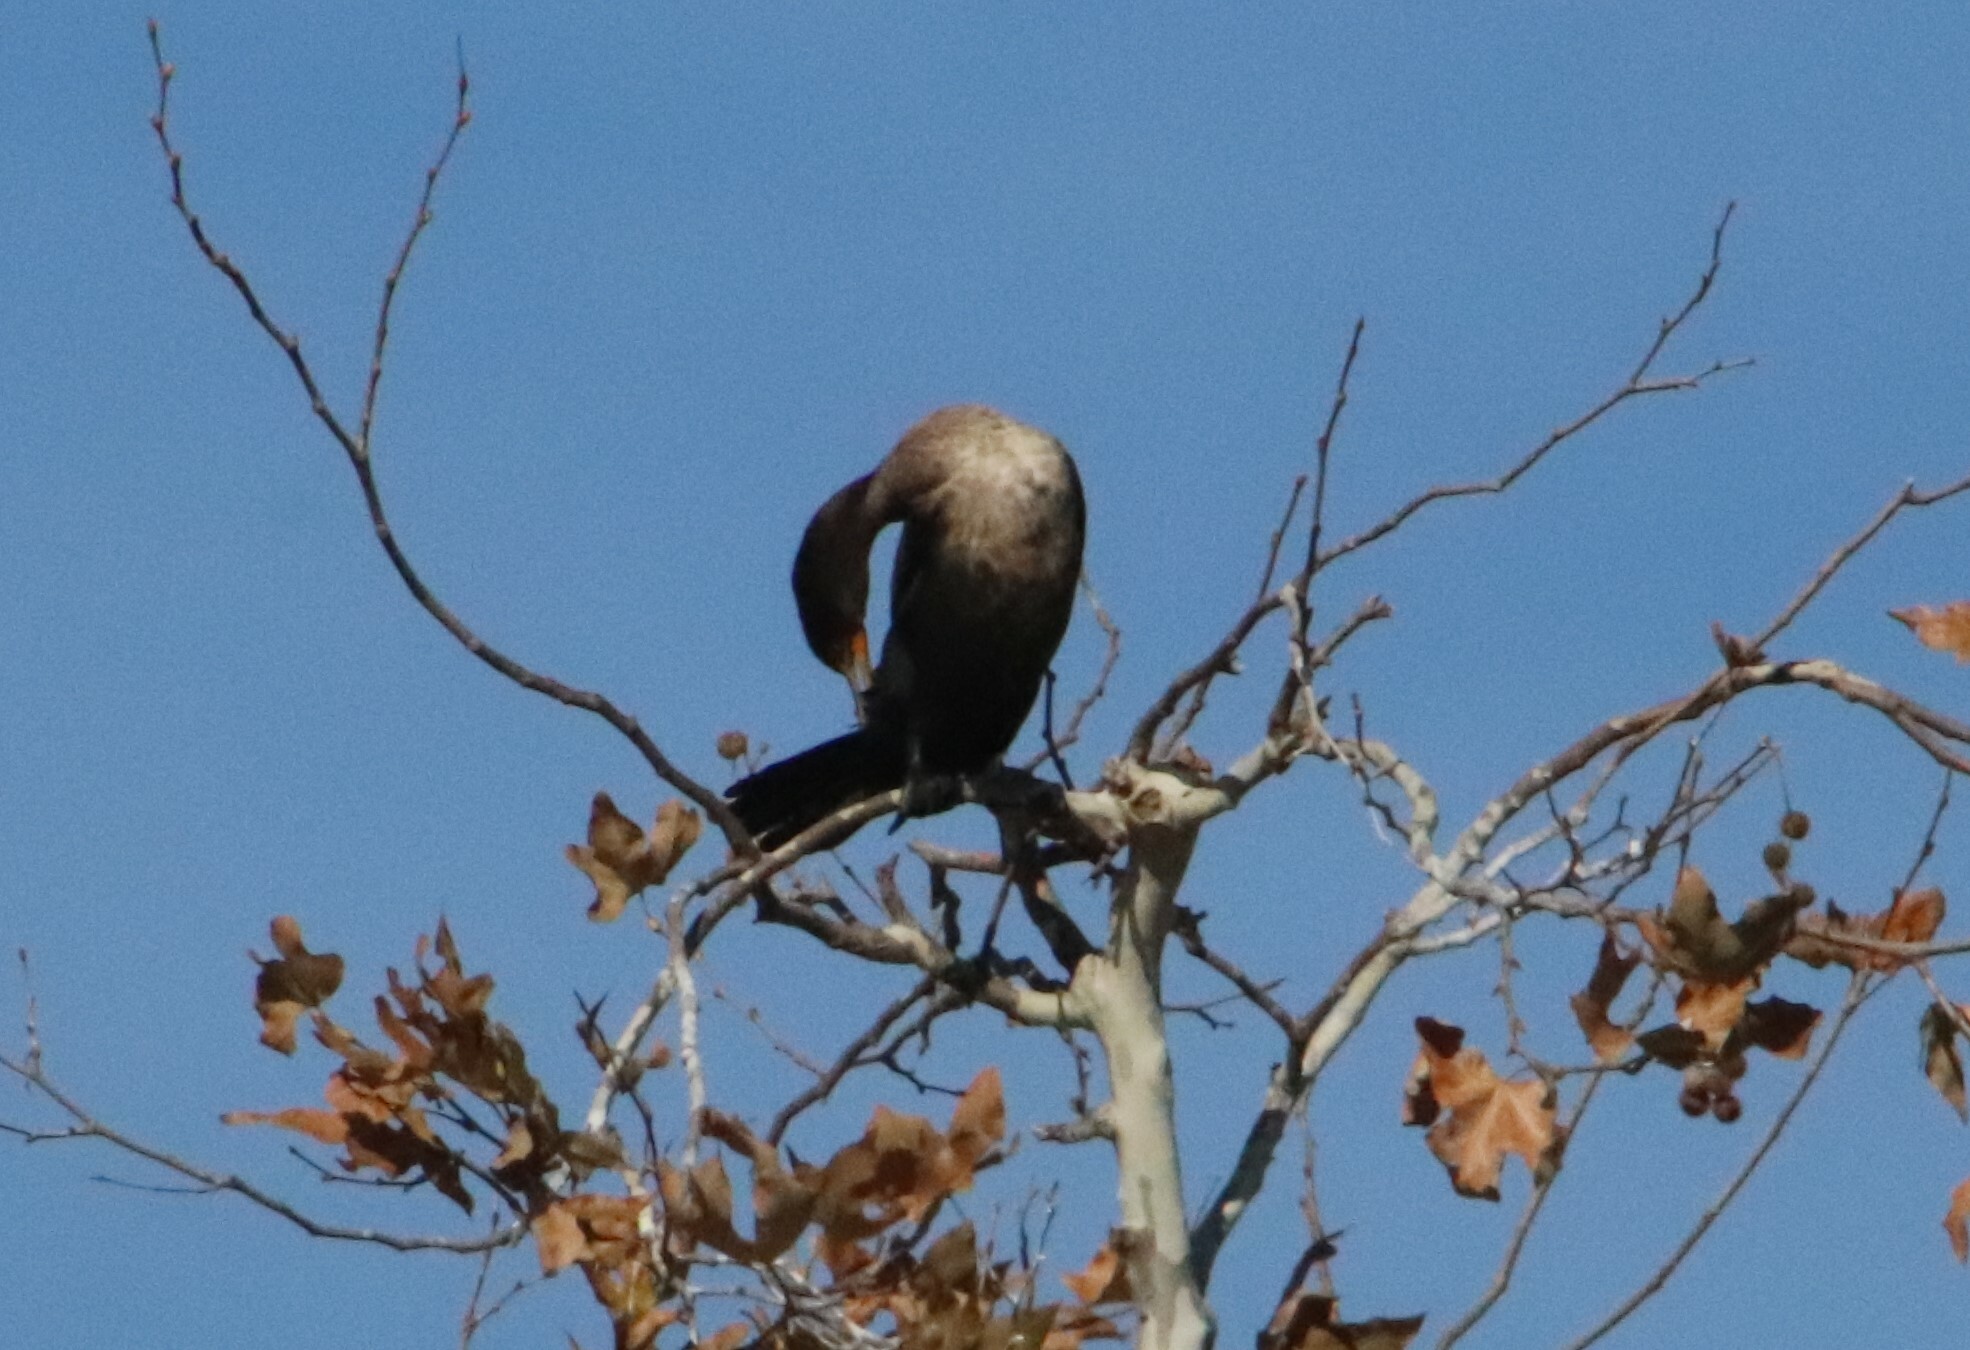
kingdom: Animalia
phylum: Chordata
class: Aves
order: Suliformes
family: Phalacrocoracidae
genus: Phalacrocorax
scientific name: Phalacrocorax auritus
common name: Double-crested cormorant
